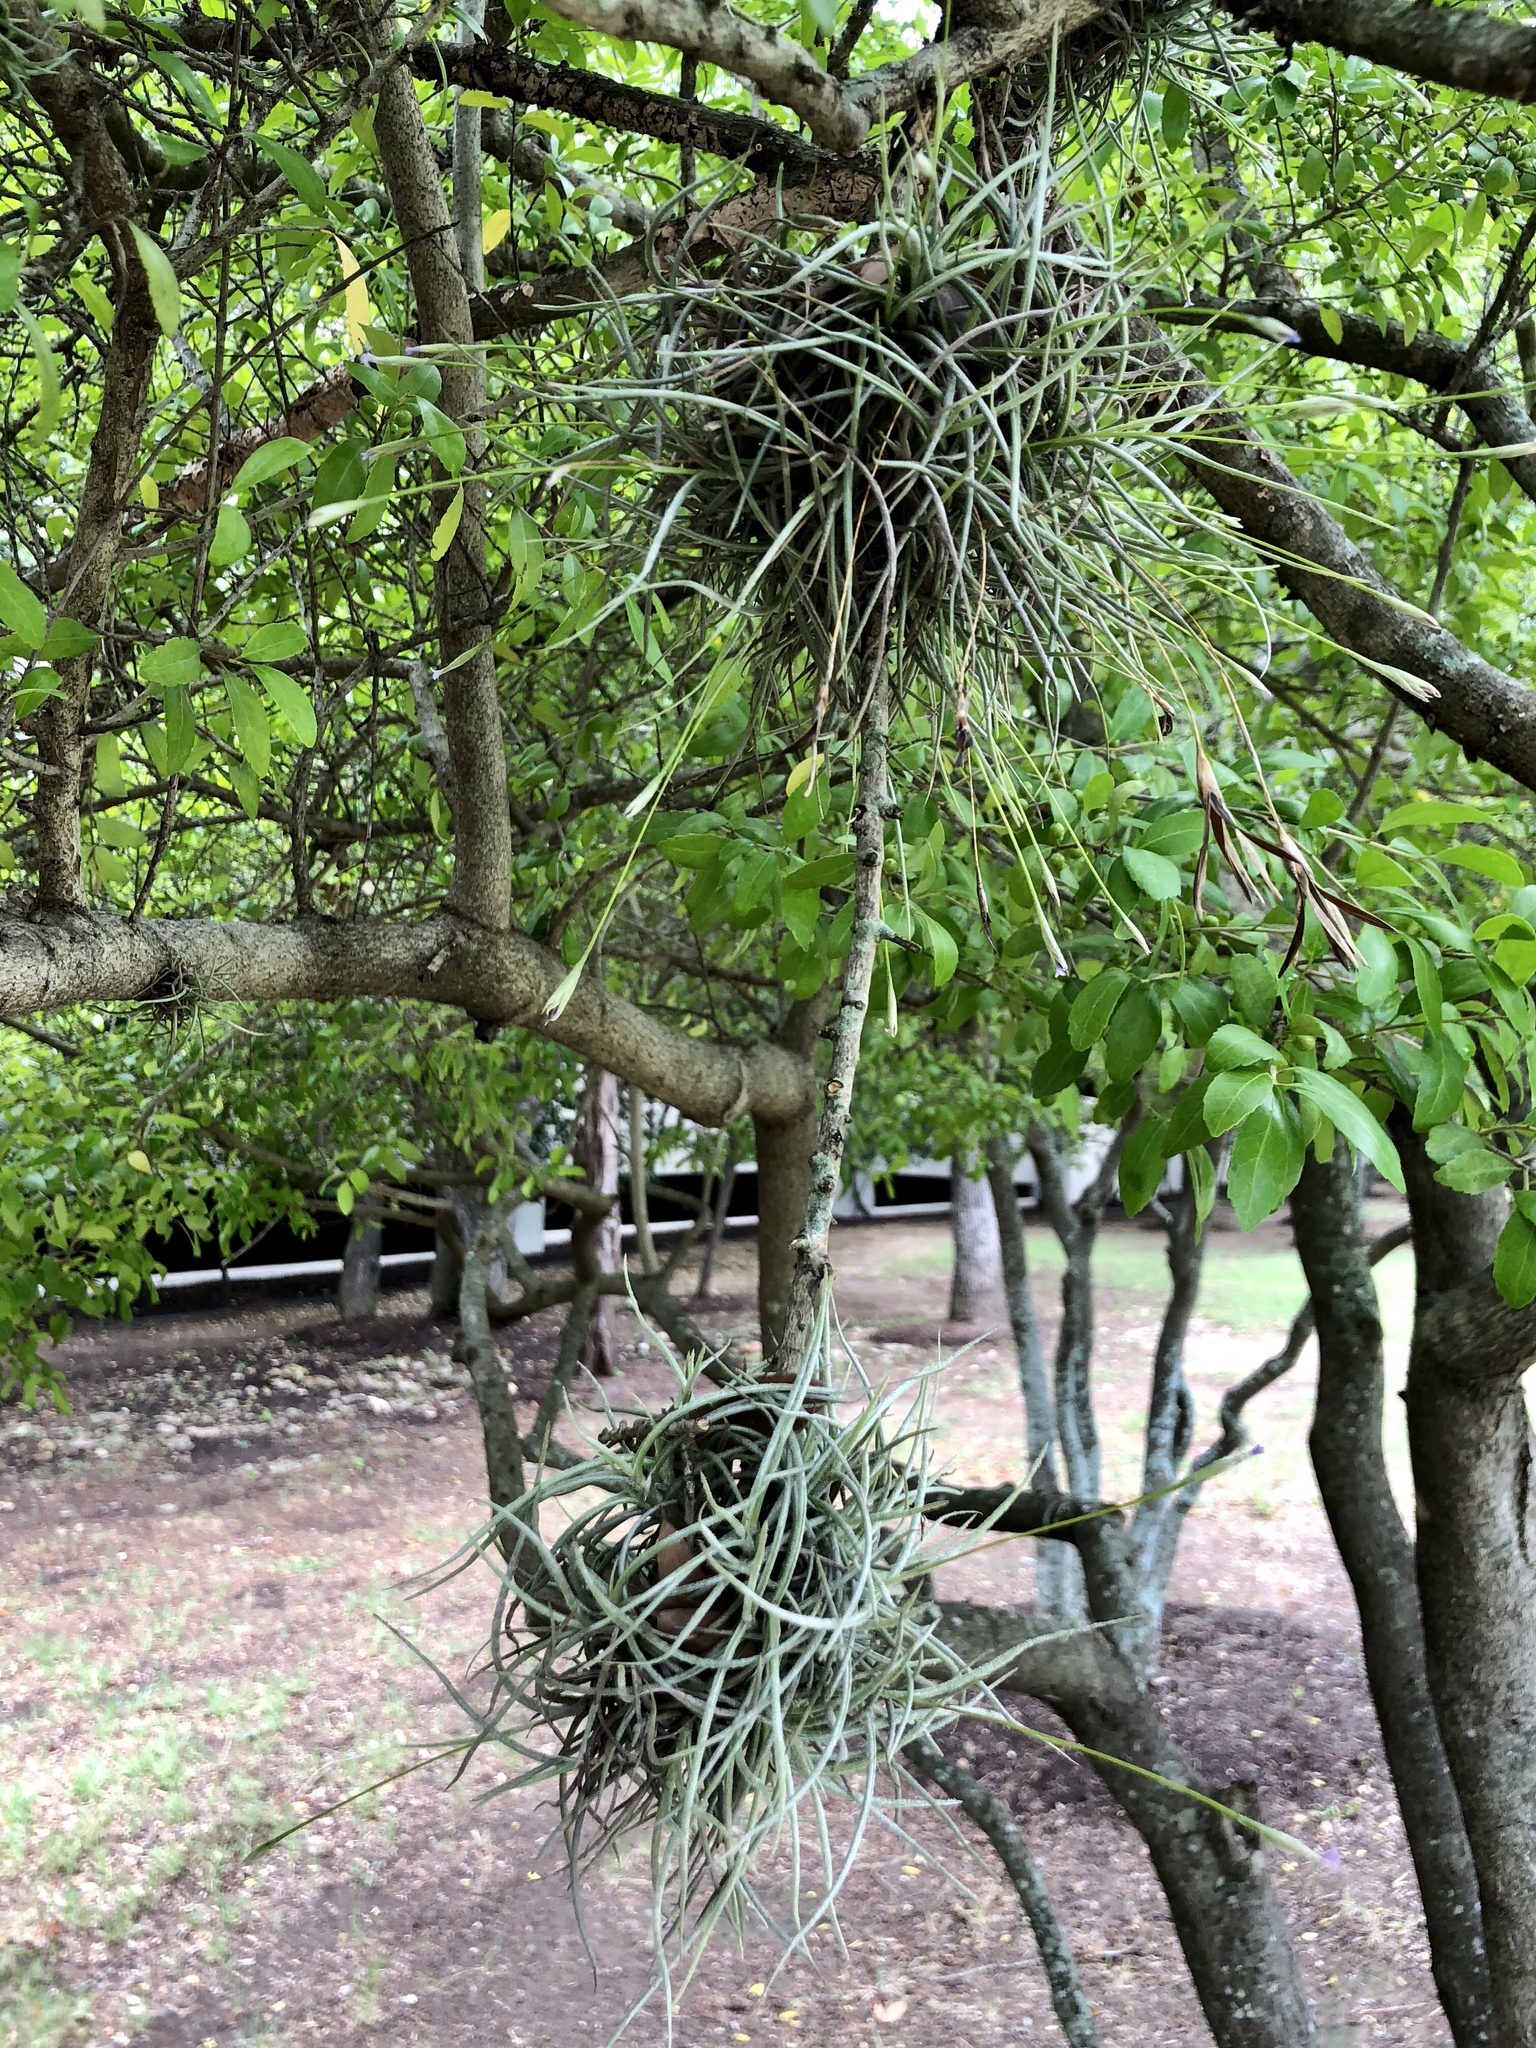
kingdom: Plantae
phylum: Tracheophyta
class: Liliopsida
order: Poales
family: Bromeliaceae
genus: Tillandsia
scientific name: Tillandsia recurvata
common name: Small ballmoss
